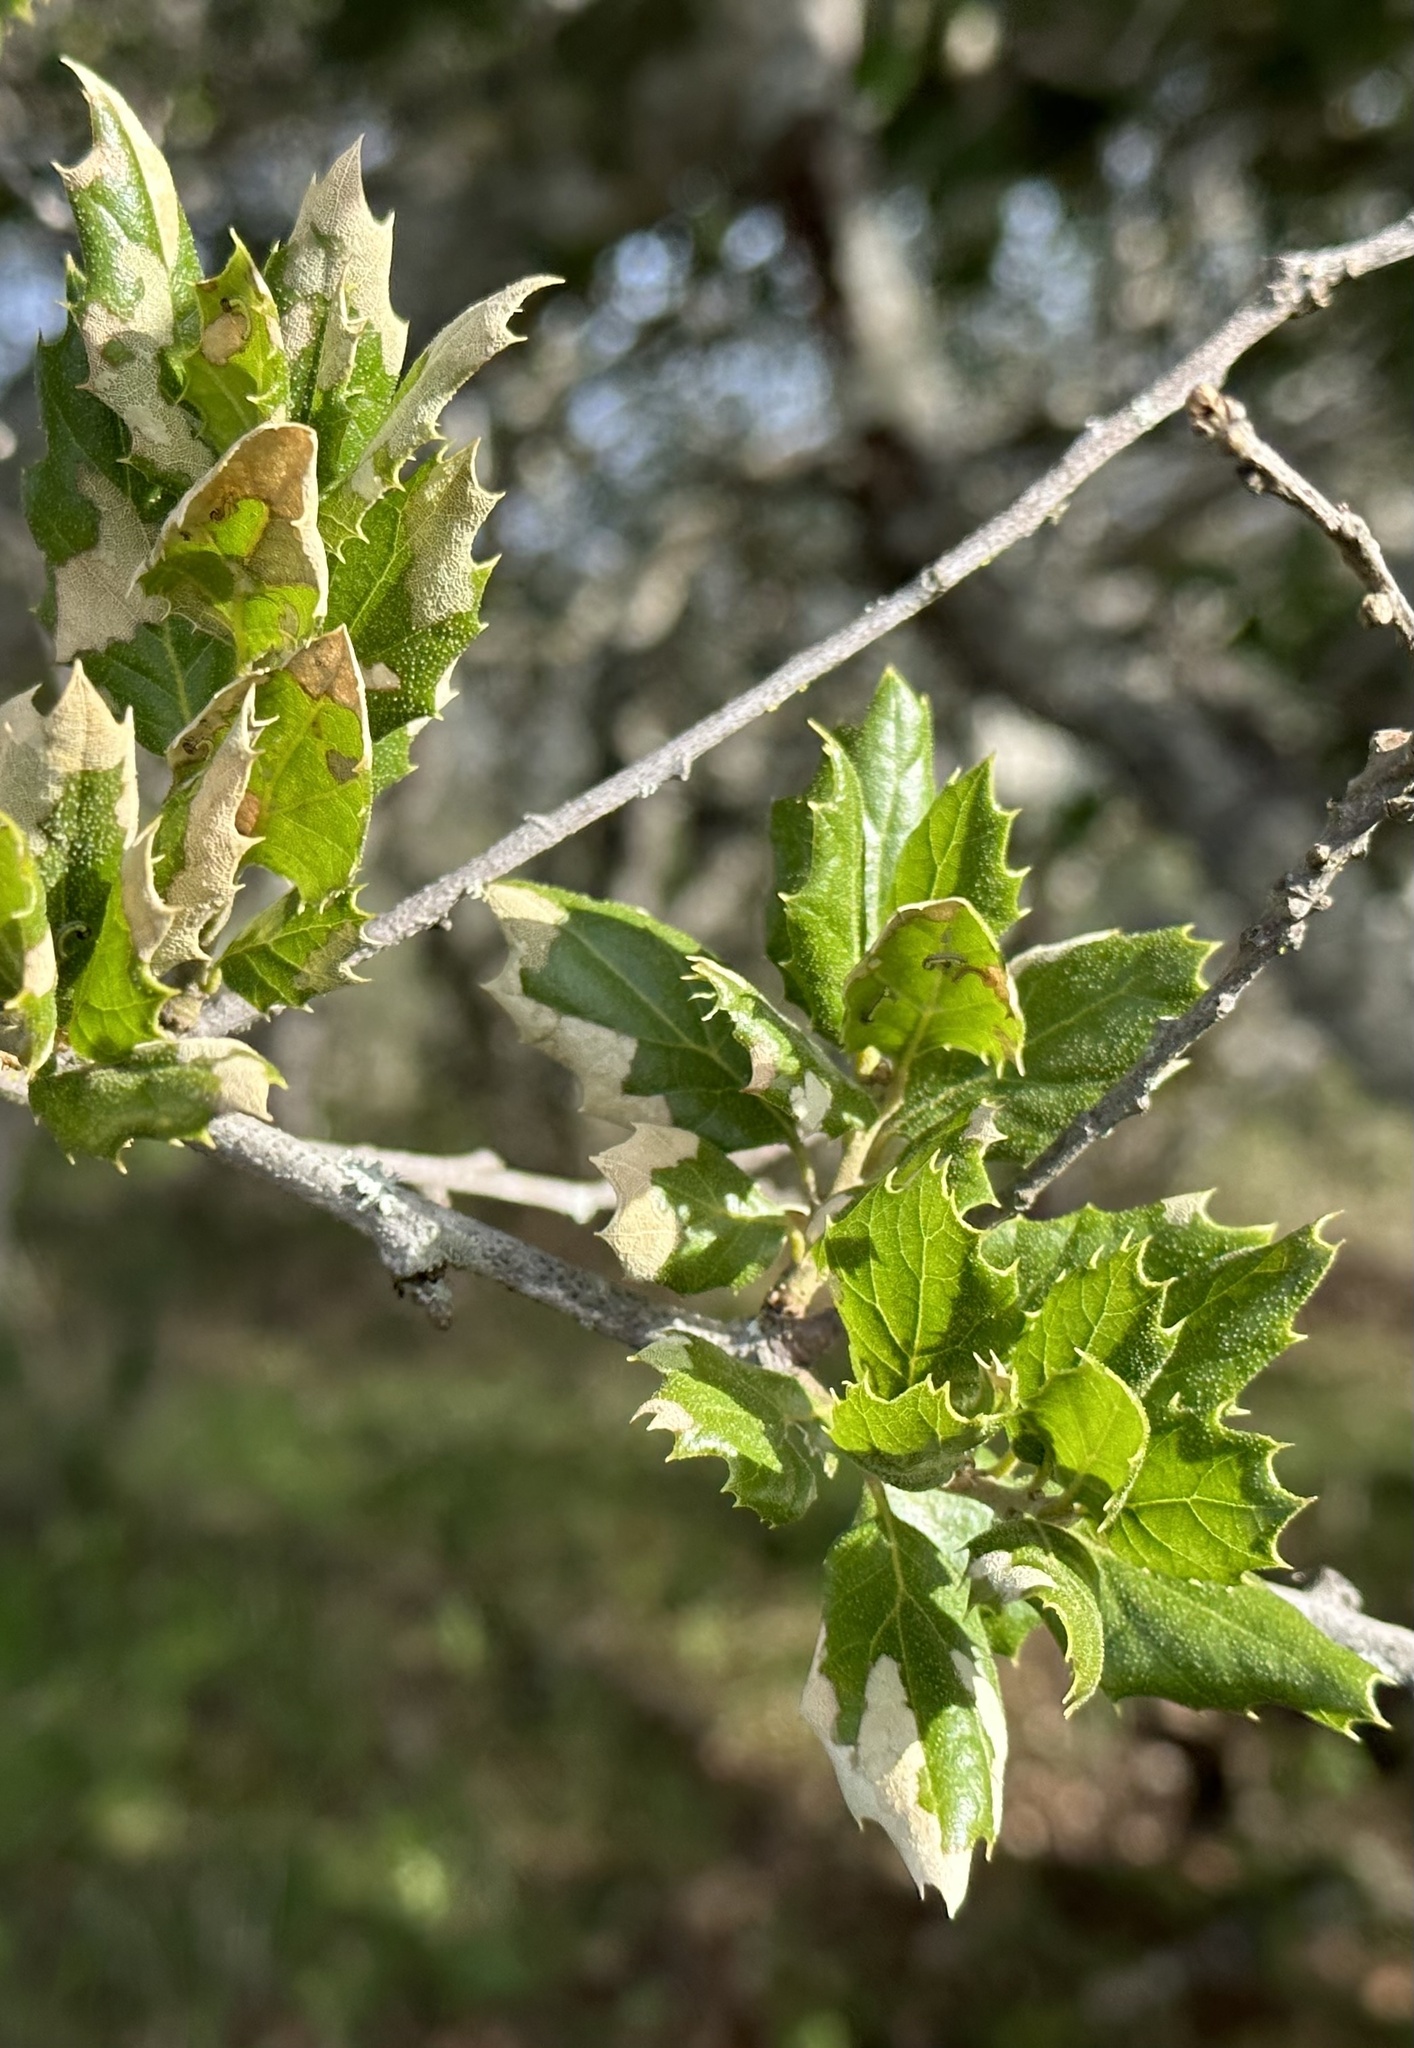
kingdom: Plantae
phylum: Tracheophyta
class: Magnoliopsida
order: Fagales
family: Fagaceae
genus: Quercus
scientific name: Quercus agrifolia
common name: California live oak
